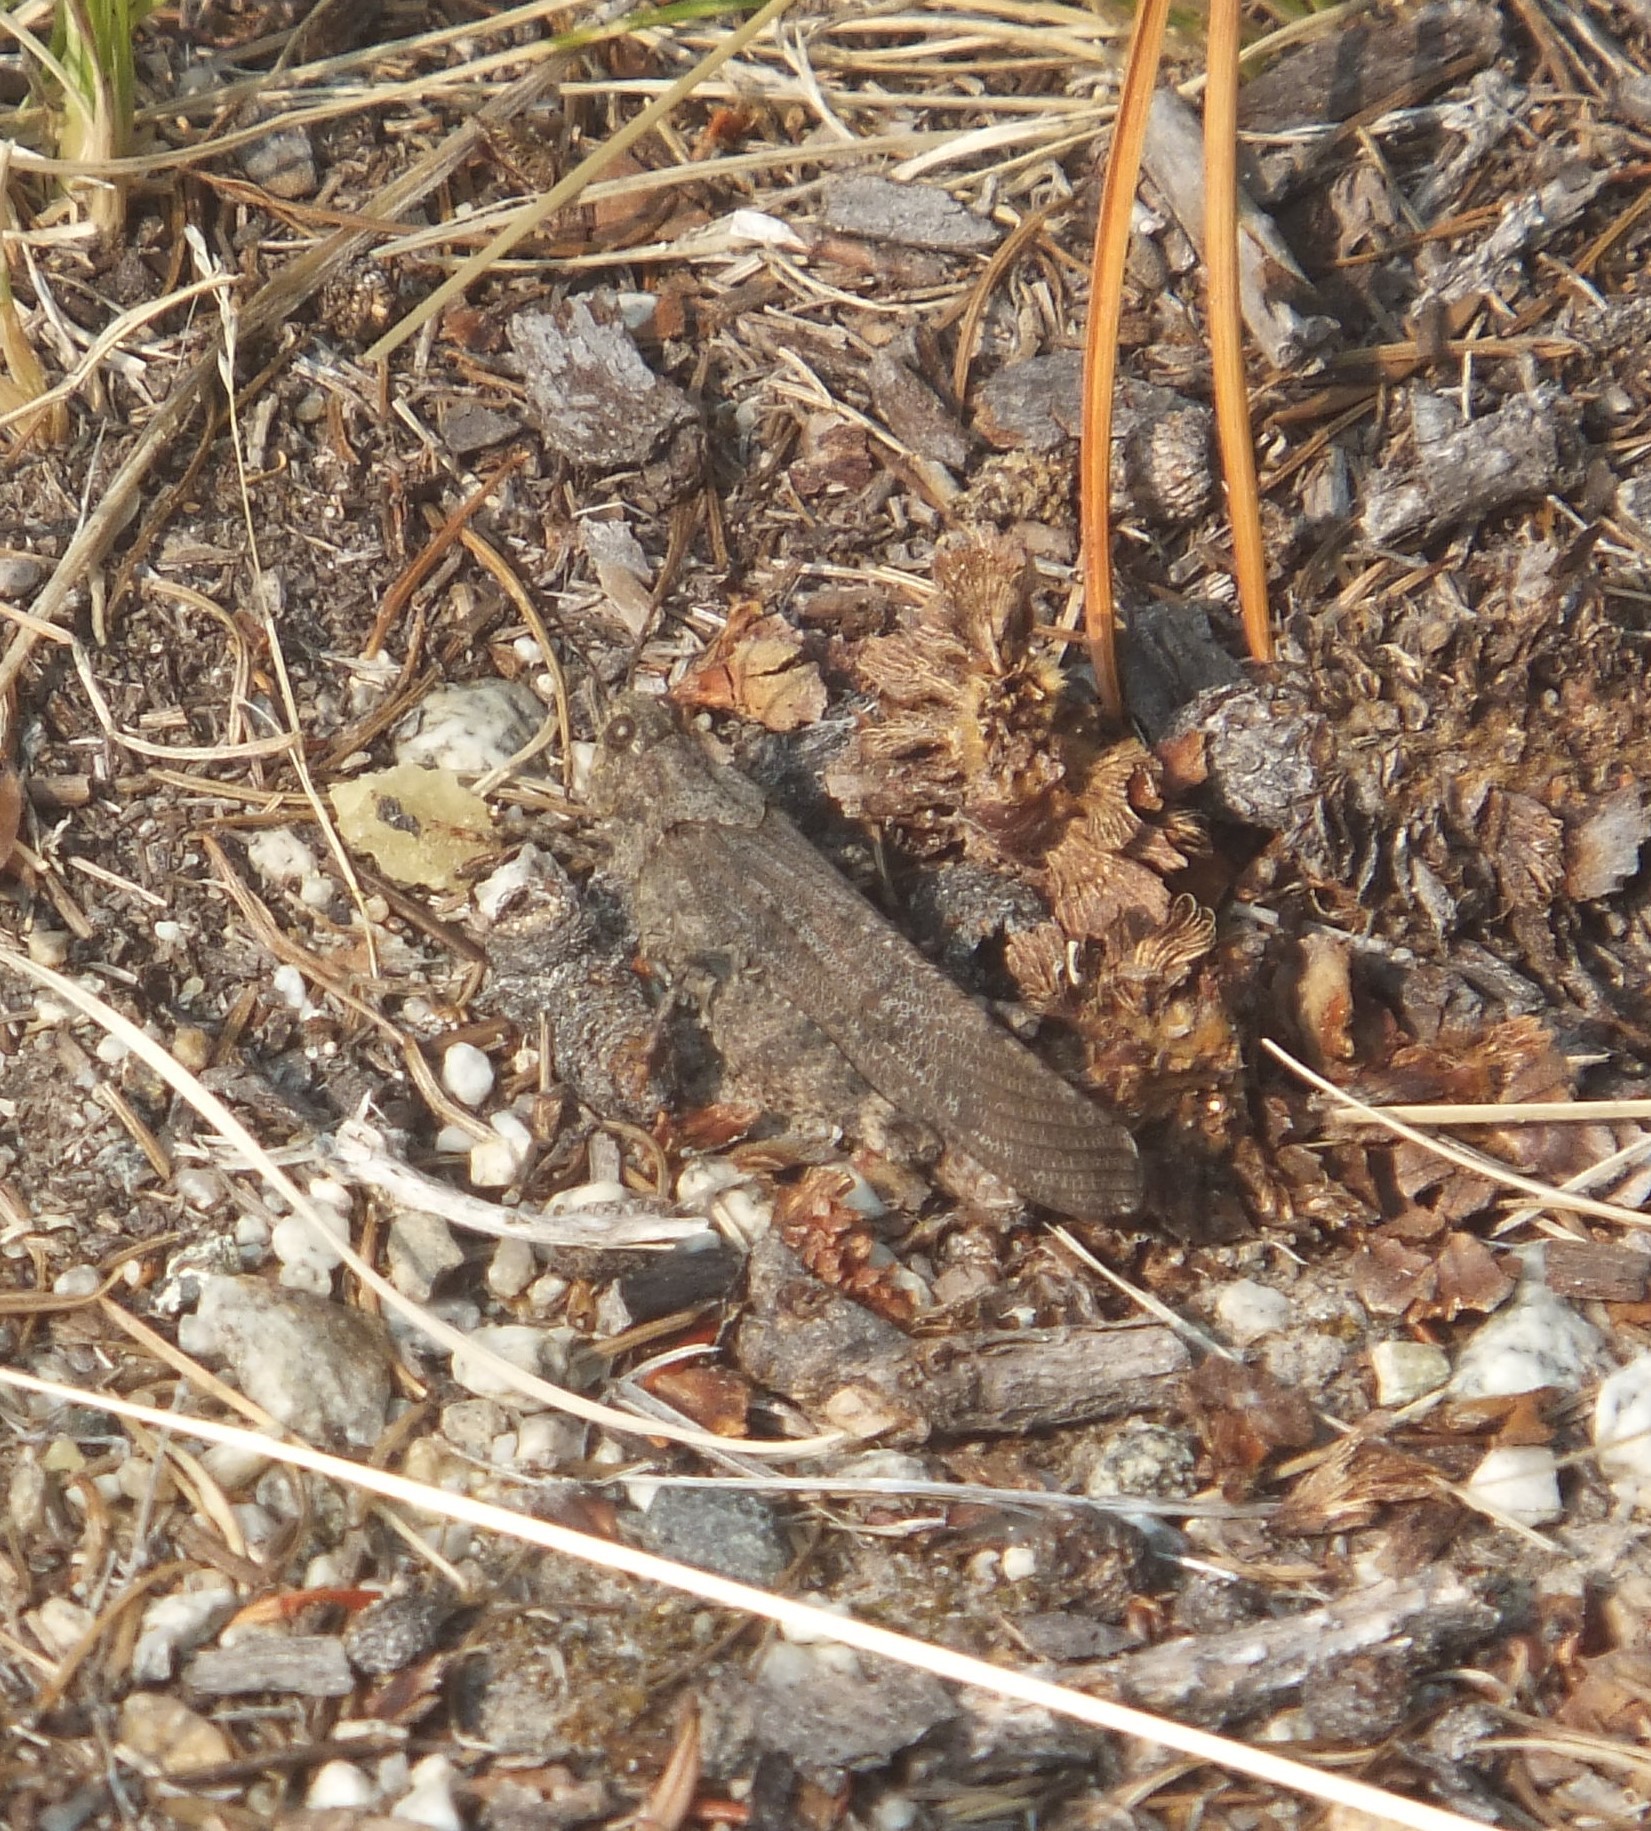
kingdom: Animalia
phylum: Arthropoda
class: Insecta
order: Orthoptera
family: Acrididae
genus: Trimerotropis
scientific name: Trimerotropis verruculata
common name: Crackling forest grasshopper
